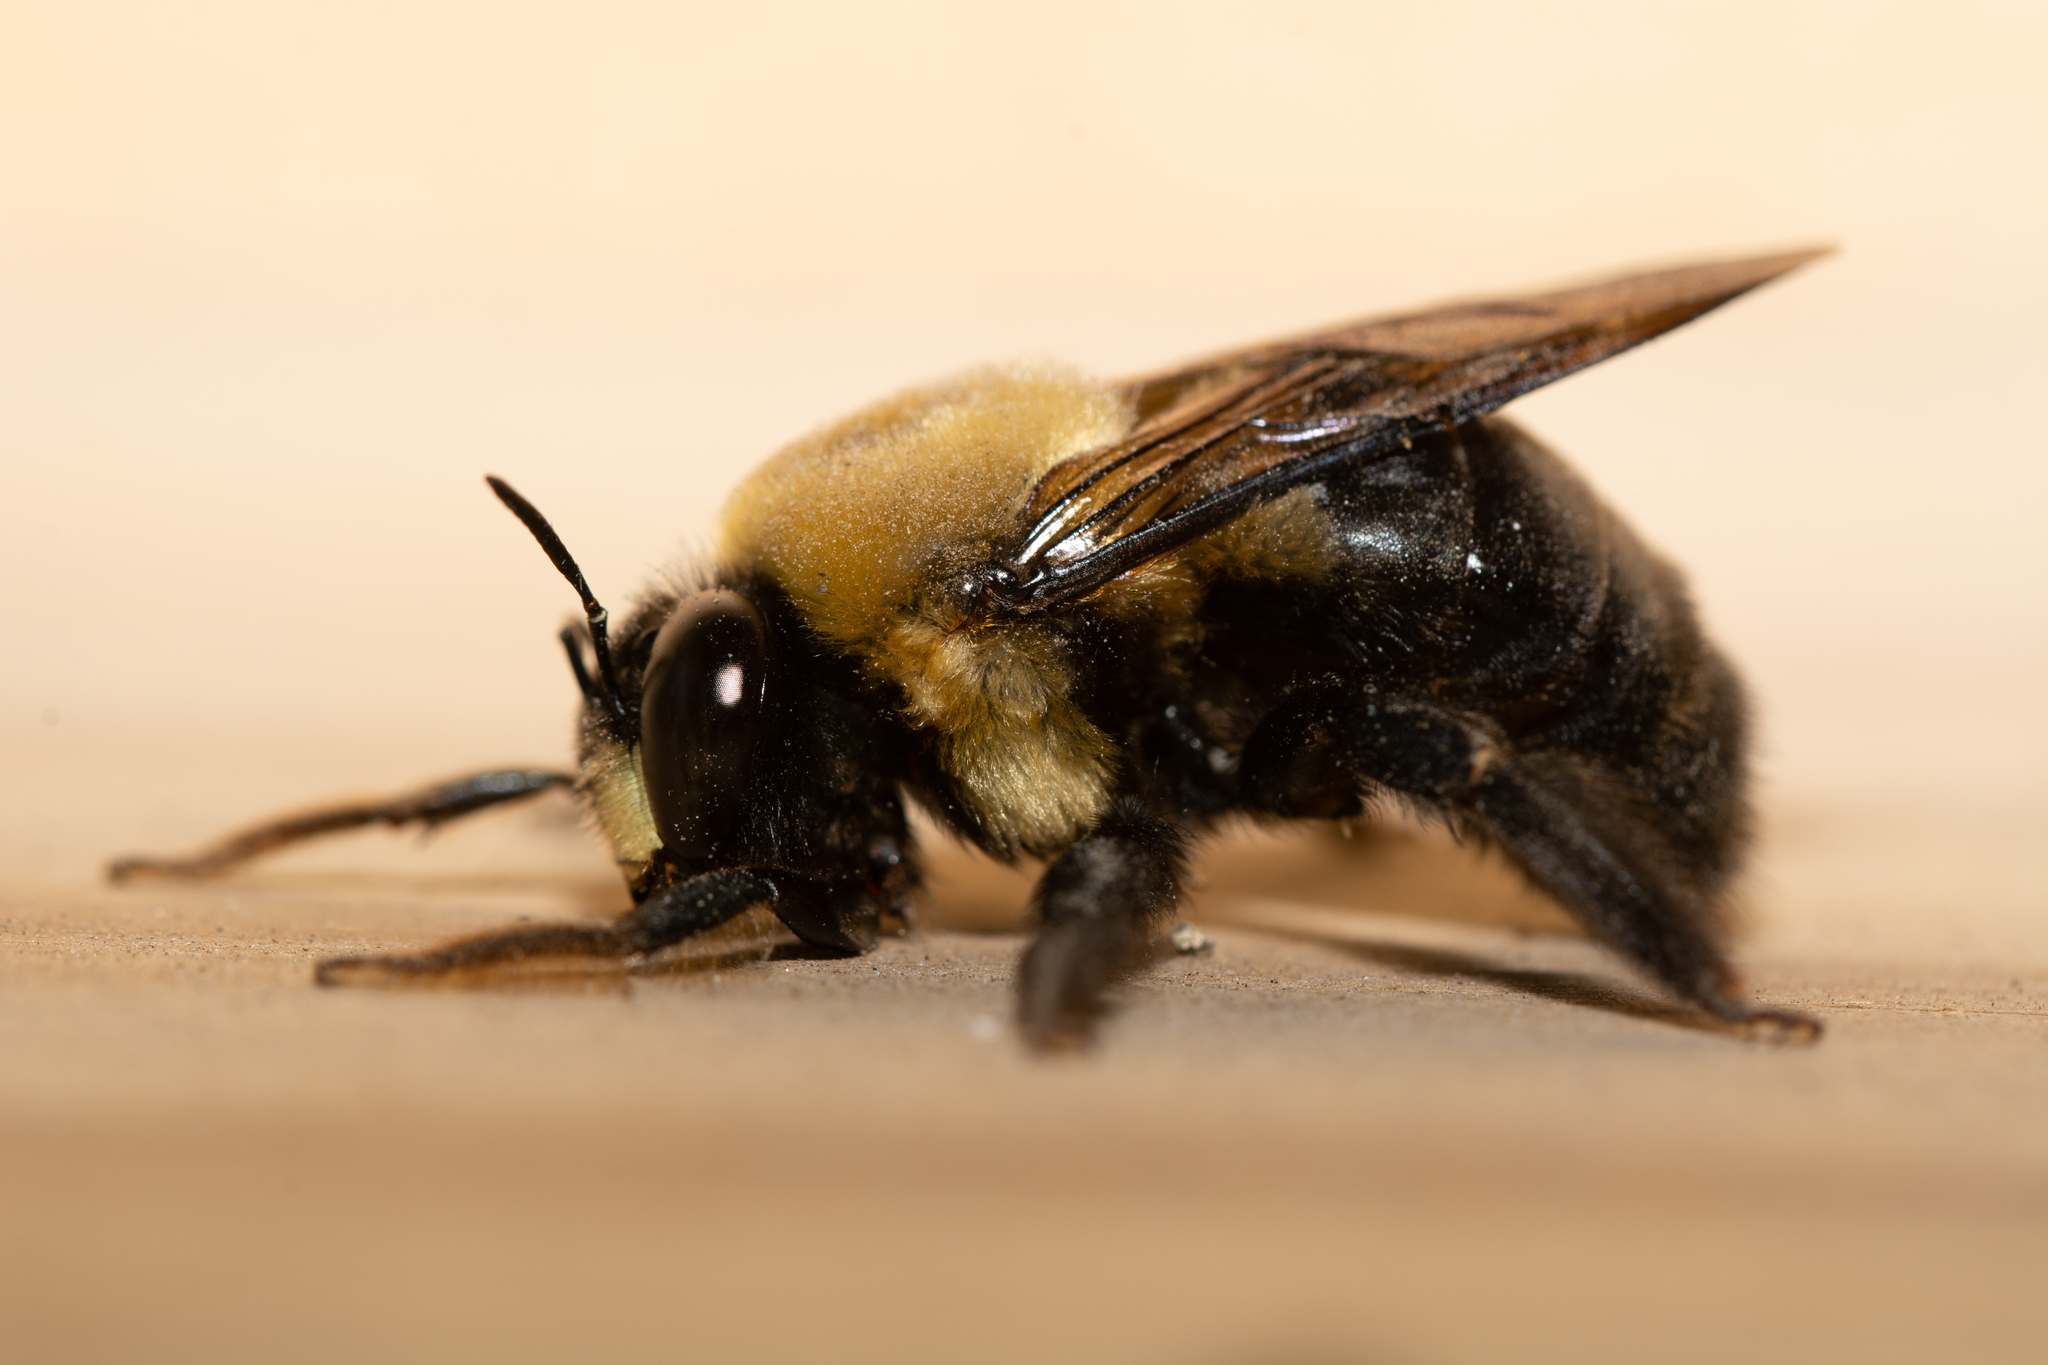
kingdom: Animalia
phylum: Arthropoda
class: Insecta
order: Hymenoptera
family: Apidae
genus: Xylocopa
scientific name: Xylocopa virginica
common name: Carpenter bee
